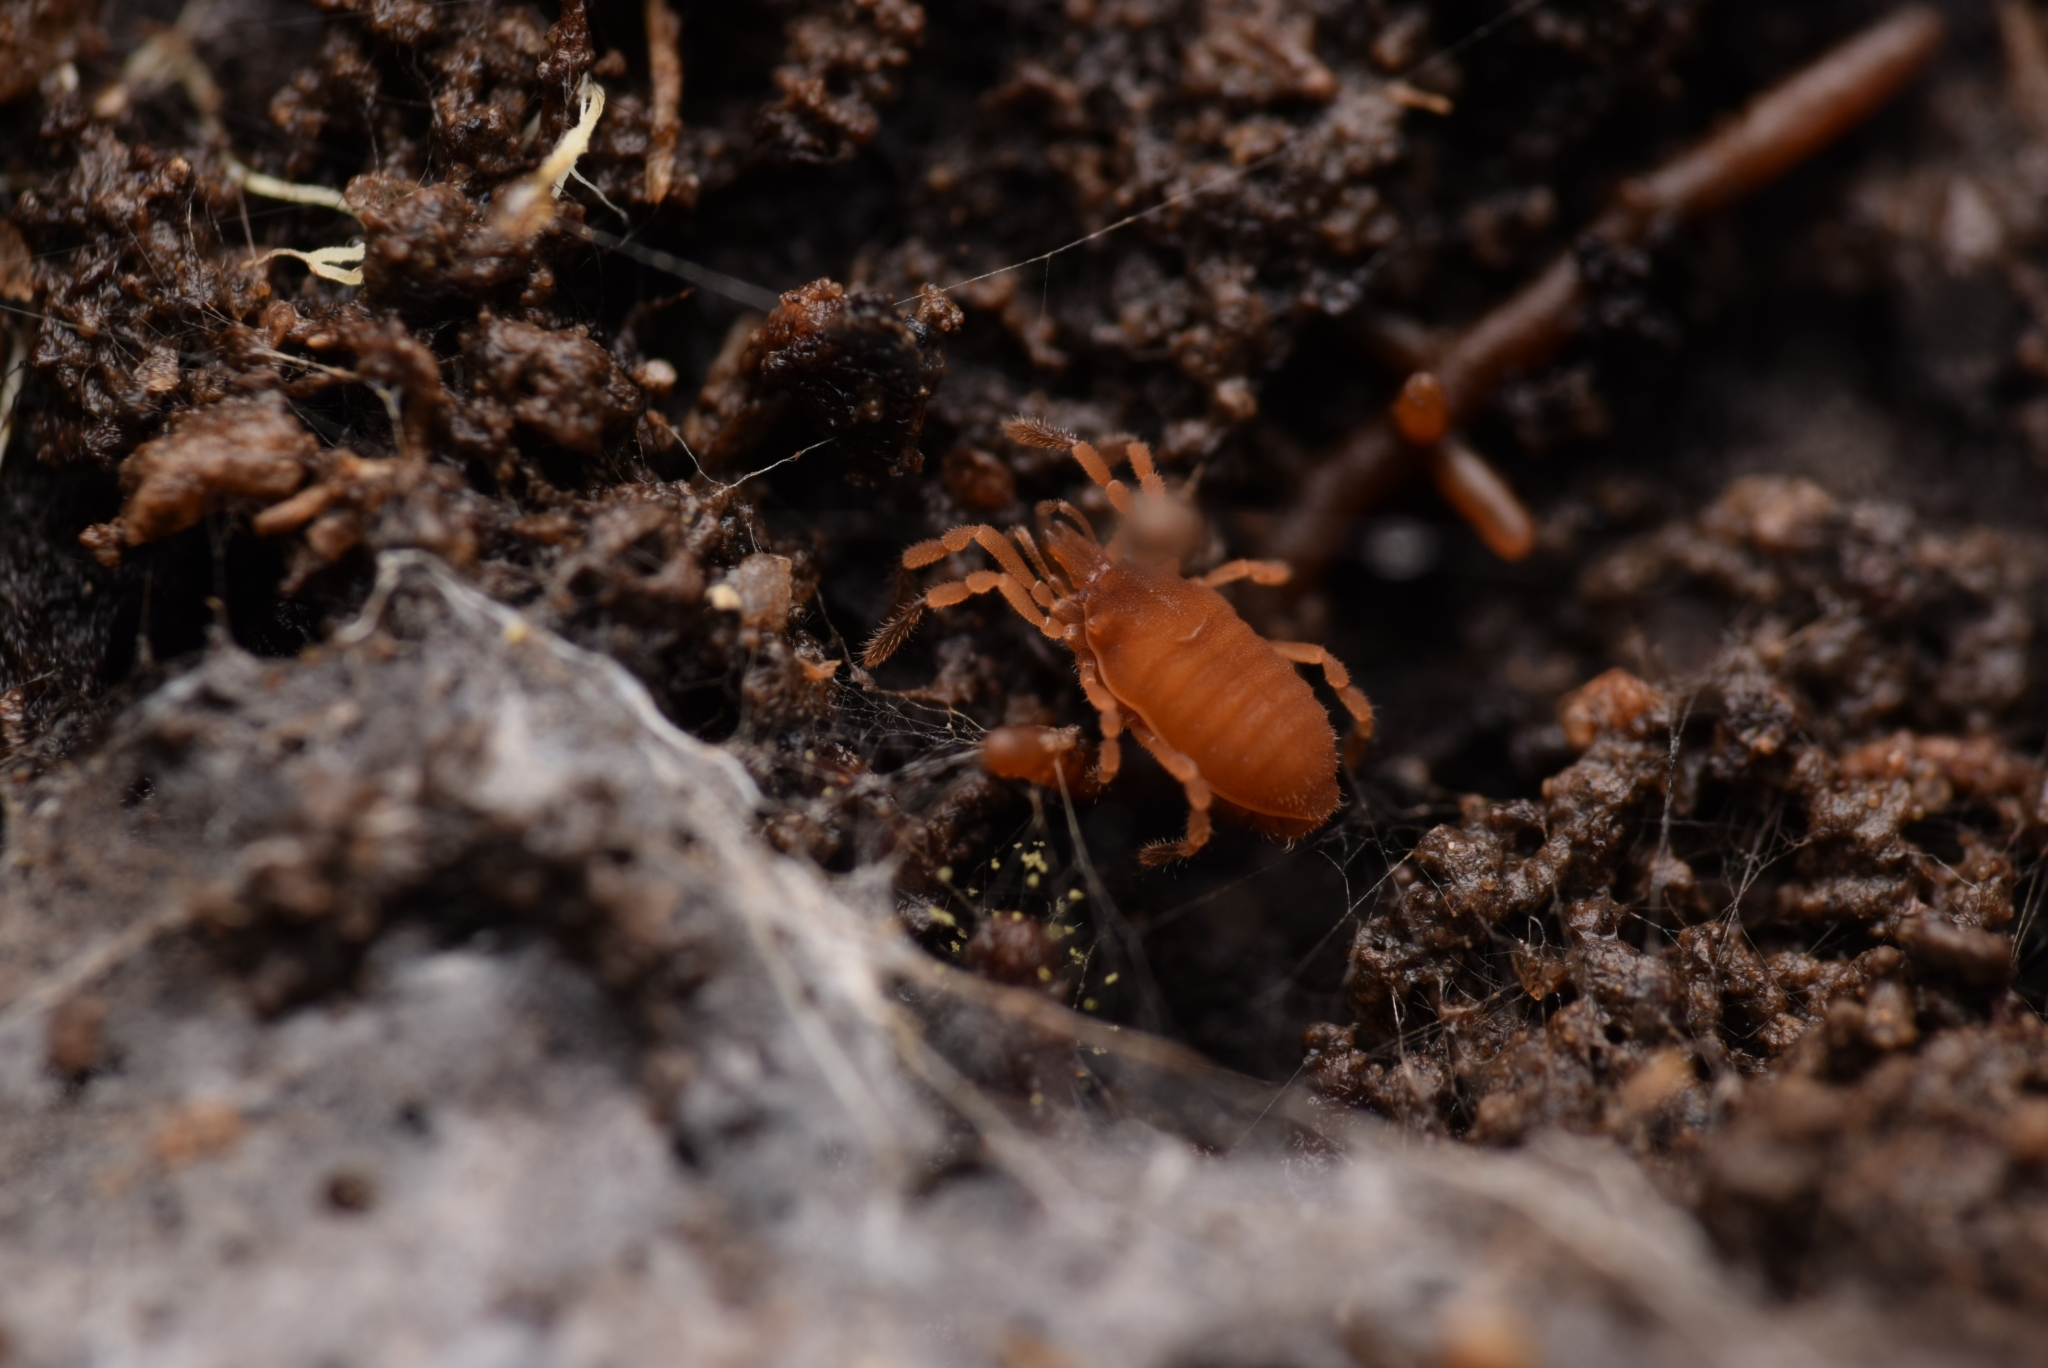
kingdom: Animalia
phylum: Arthropoda
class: Arachnida
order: Opiliones
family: Sironidae
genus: Siro
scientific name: Siro rubens
